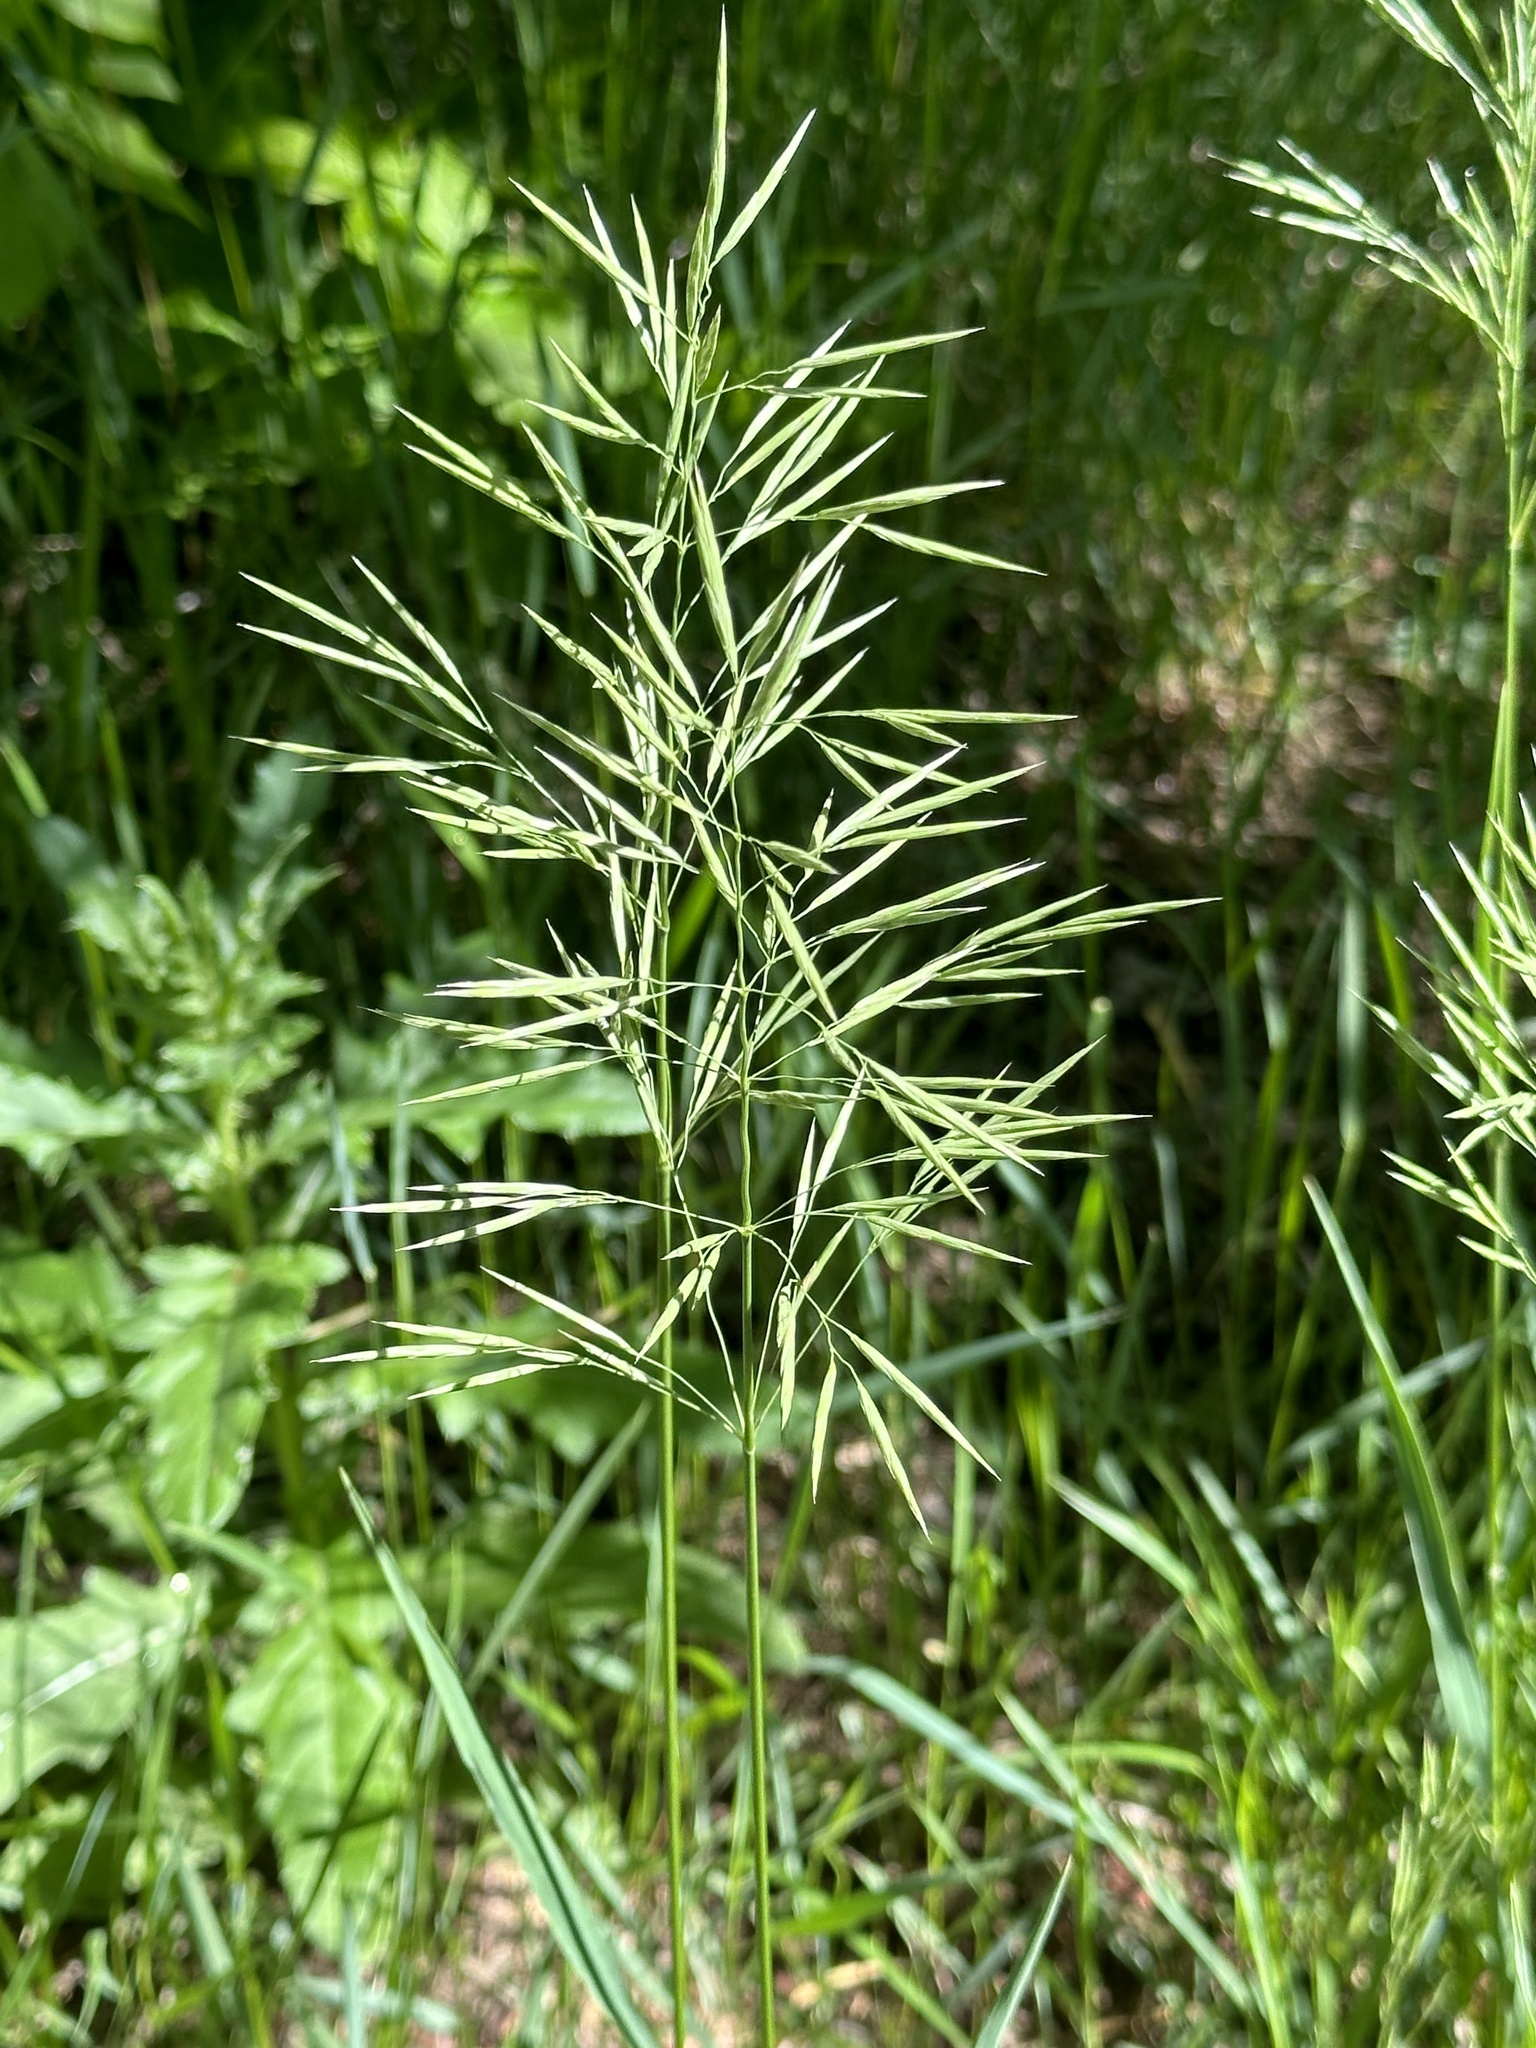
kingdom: Plantae
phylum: Tracheophyta
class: Liliopsida
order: Poales
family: Poaceae
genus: Bromus
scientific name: Bromus inermis
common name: Smooth brome
